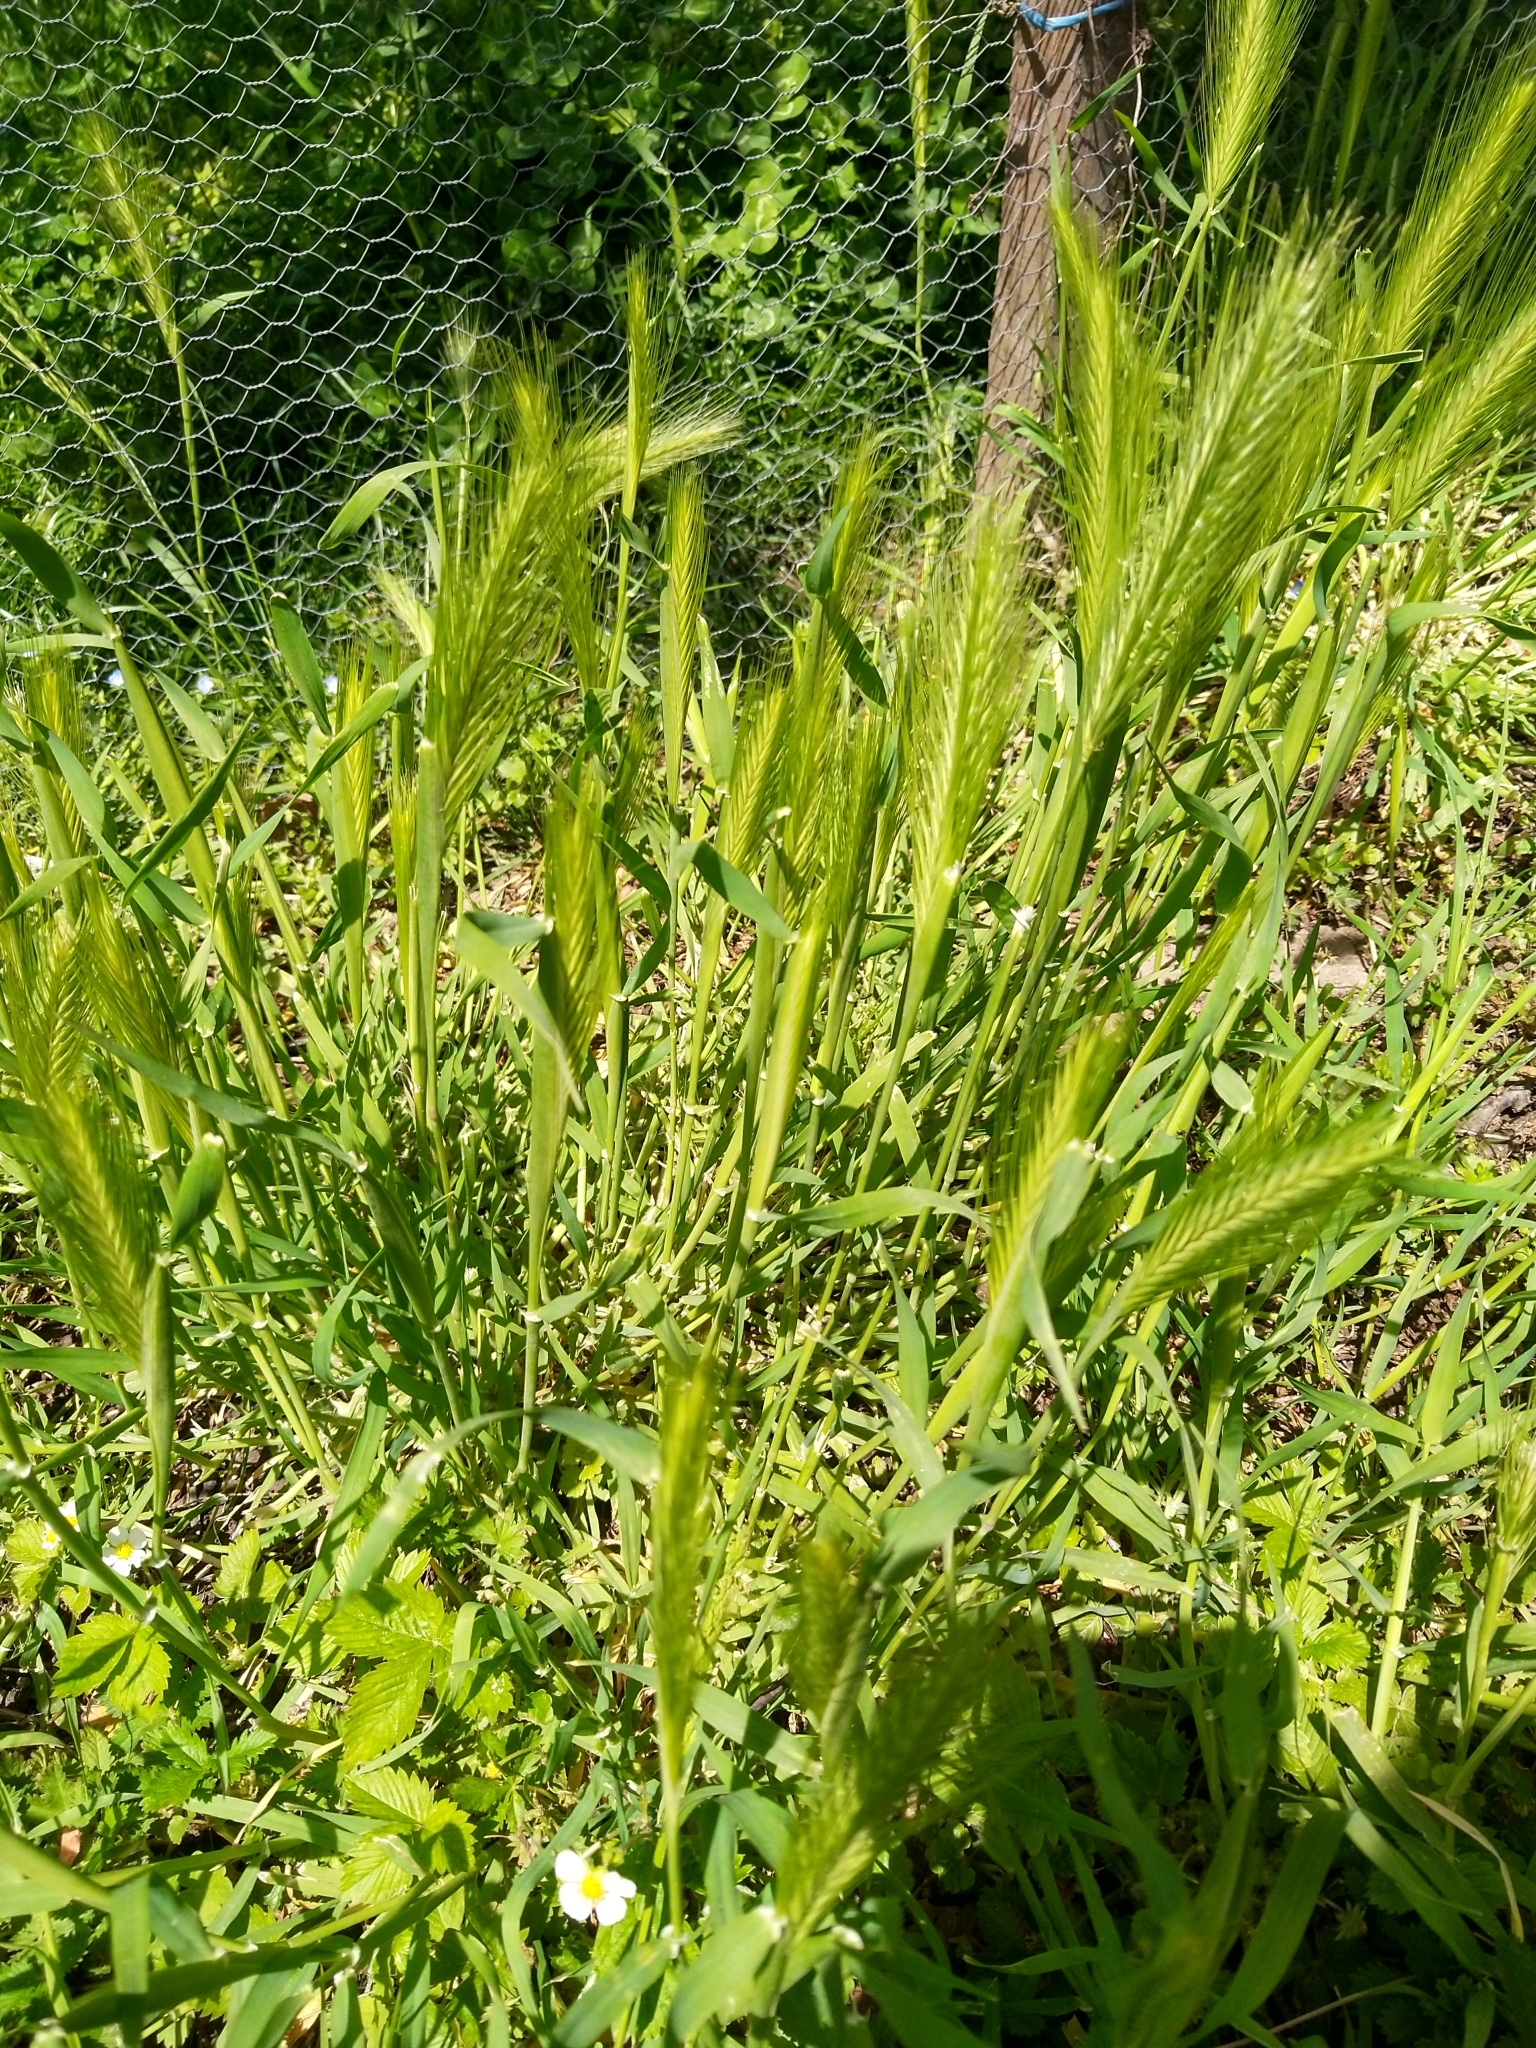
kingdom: Plantae
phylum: Tracheophyta
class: Liliopsida
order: Poales
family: Poaceae
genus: Hordeum
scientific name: Hordeum murinum
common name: Wall barley
